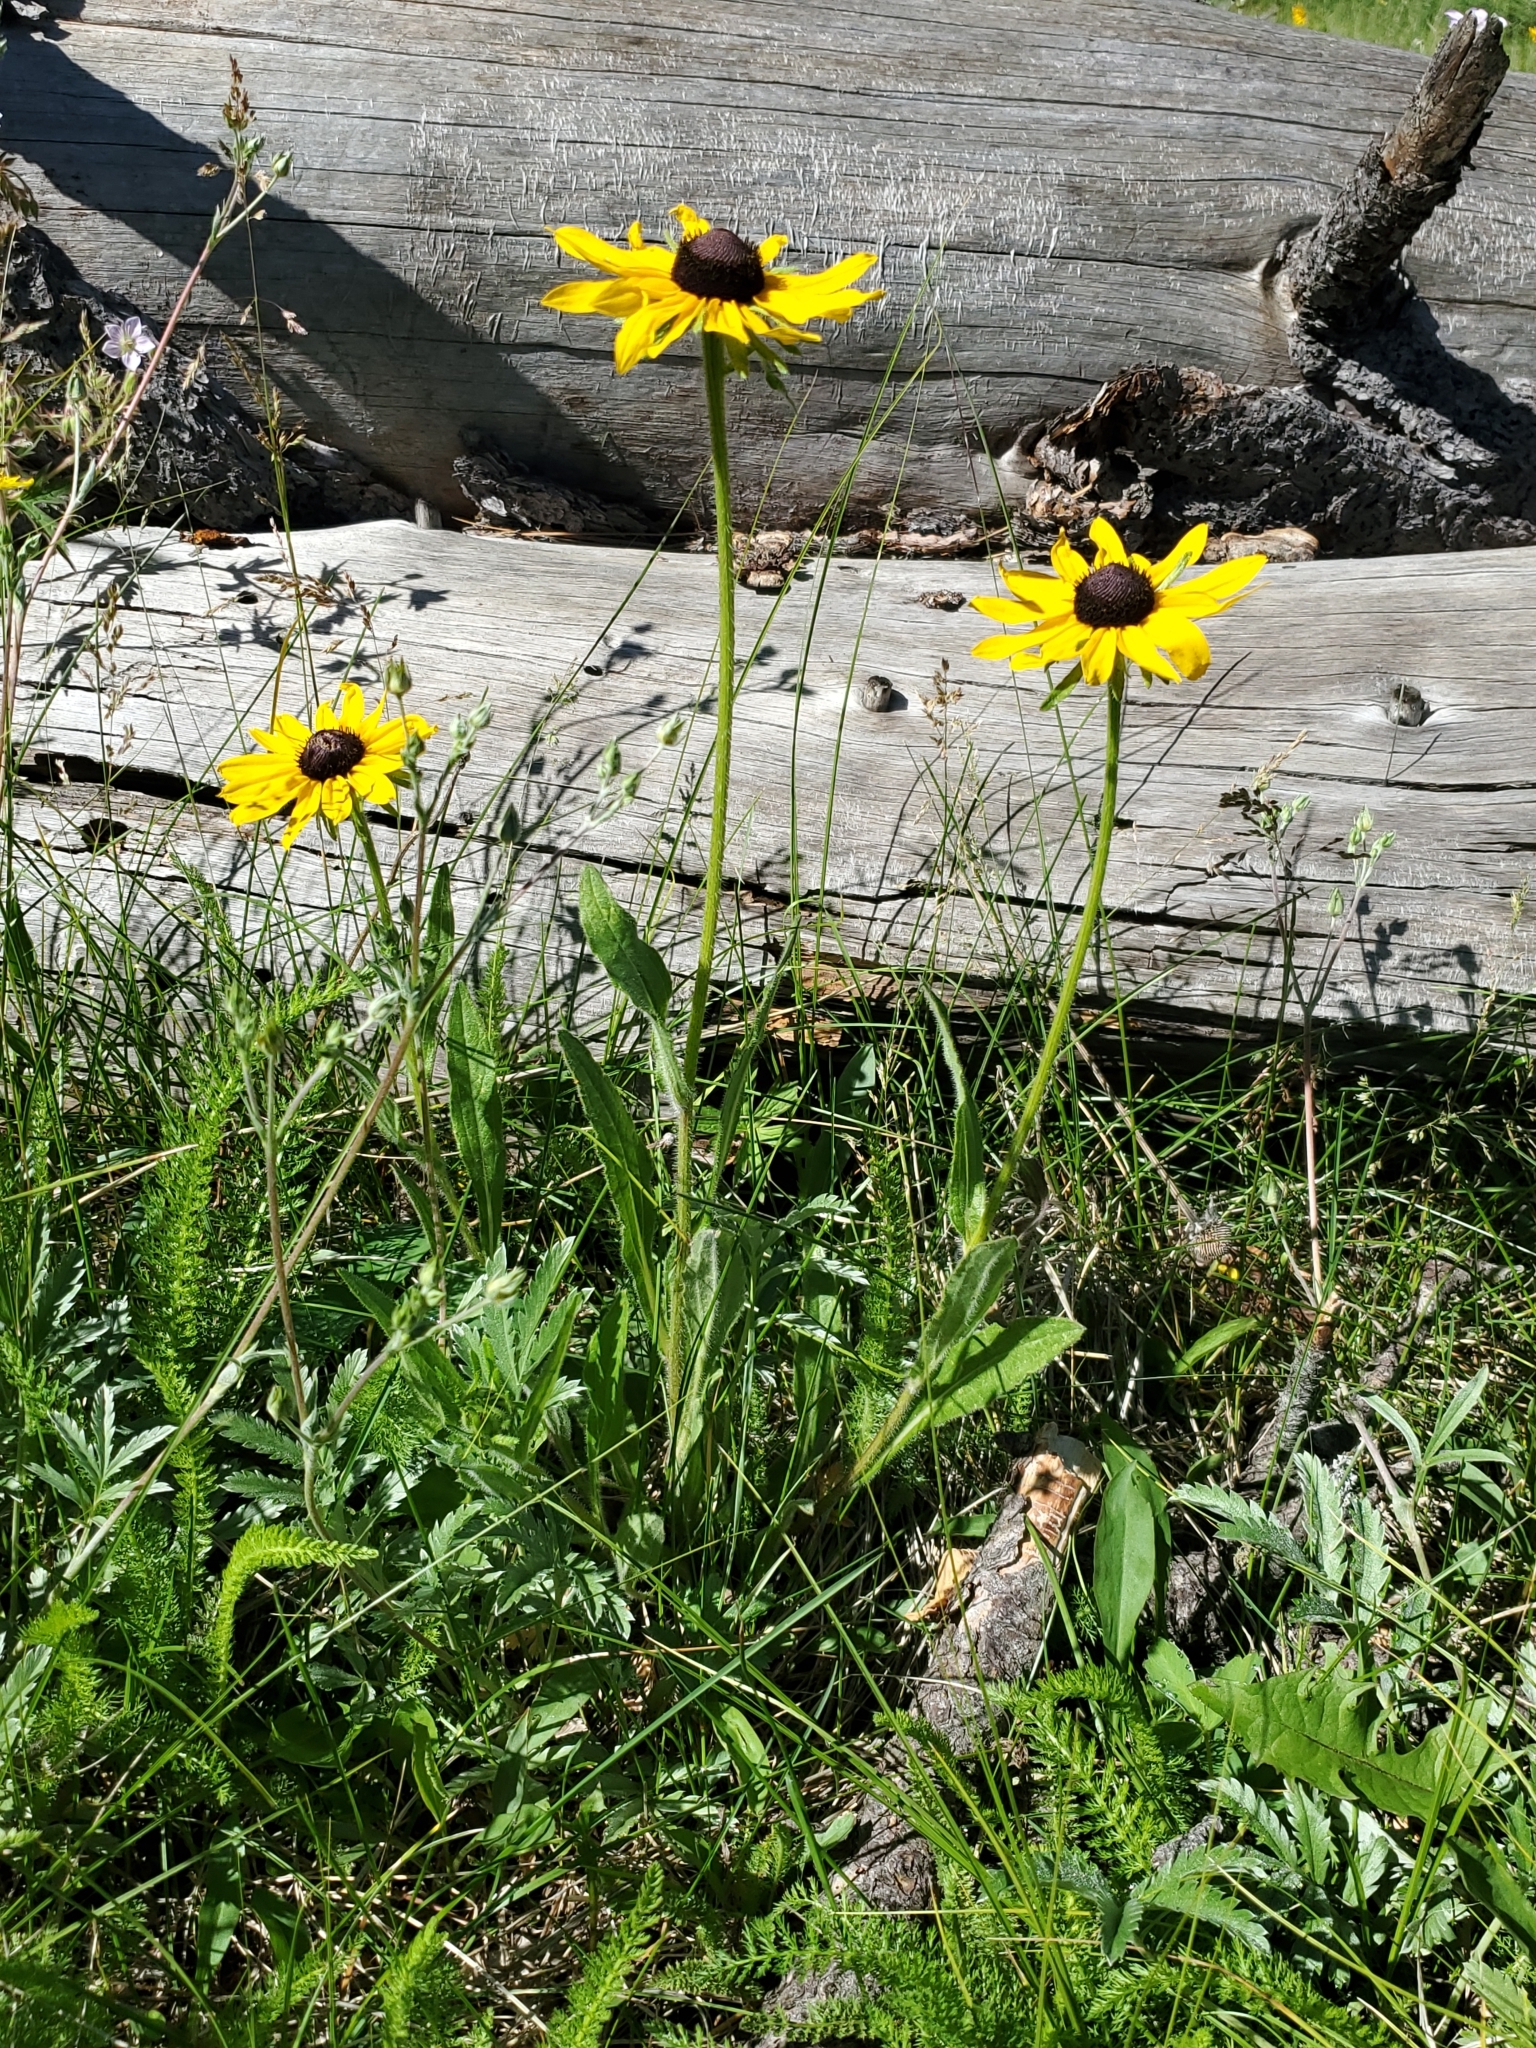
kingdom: Plantae
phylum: Tracheophyta
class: Magnoliopsida
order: Asterales
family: Asteraceae
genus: Rudbeckia
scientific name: Rudbeckia hirta
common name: Black-eyed-susan
